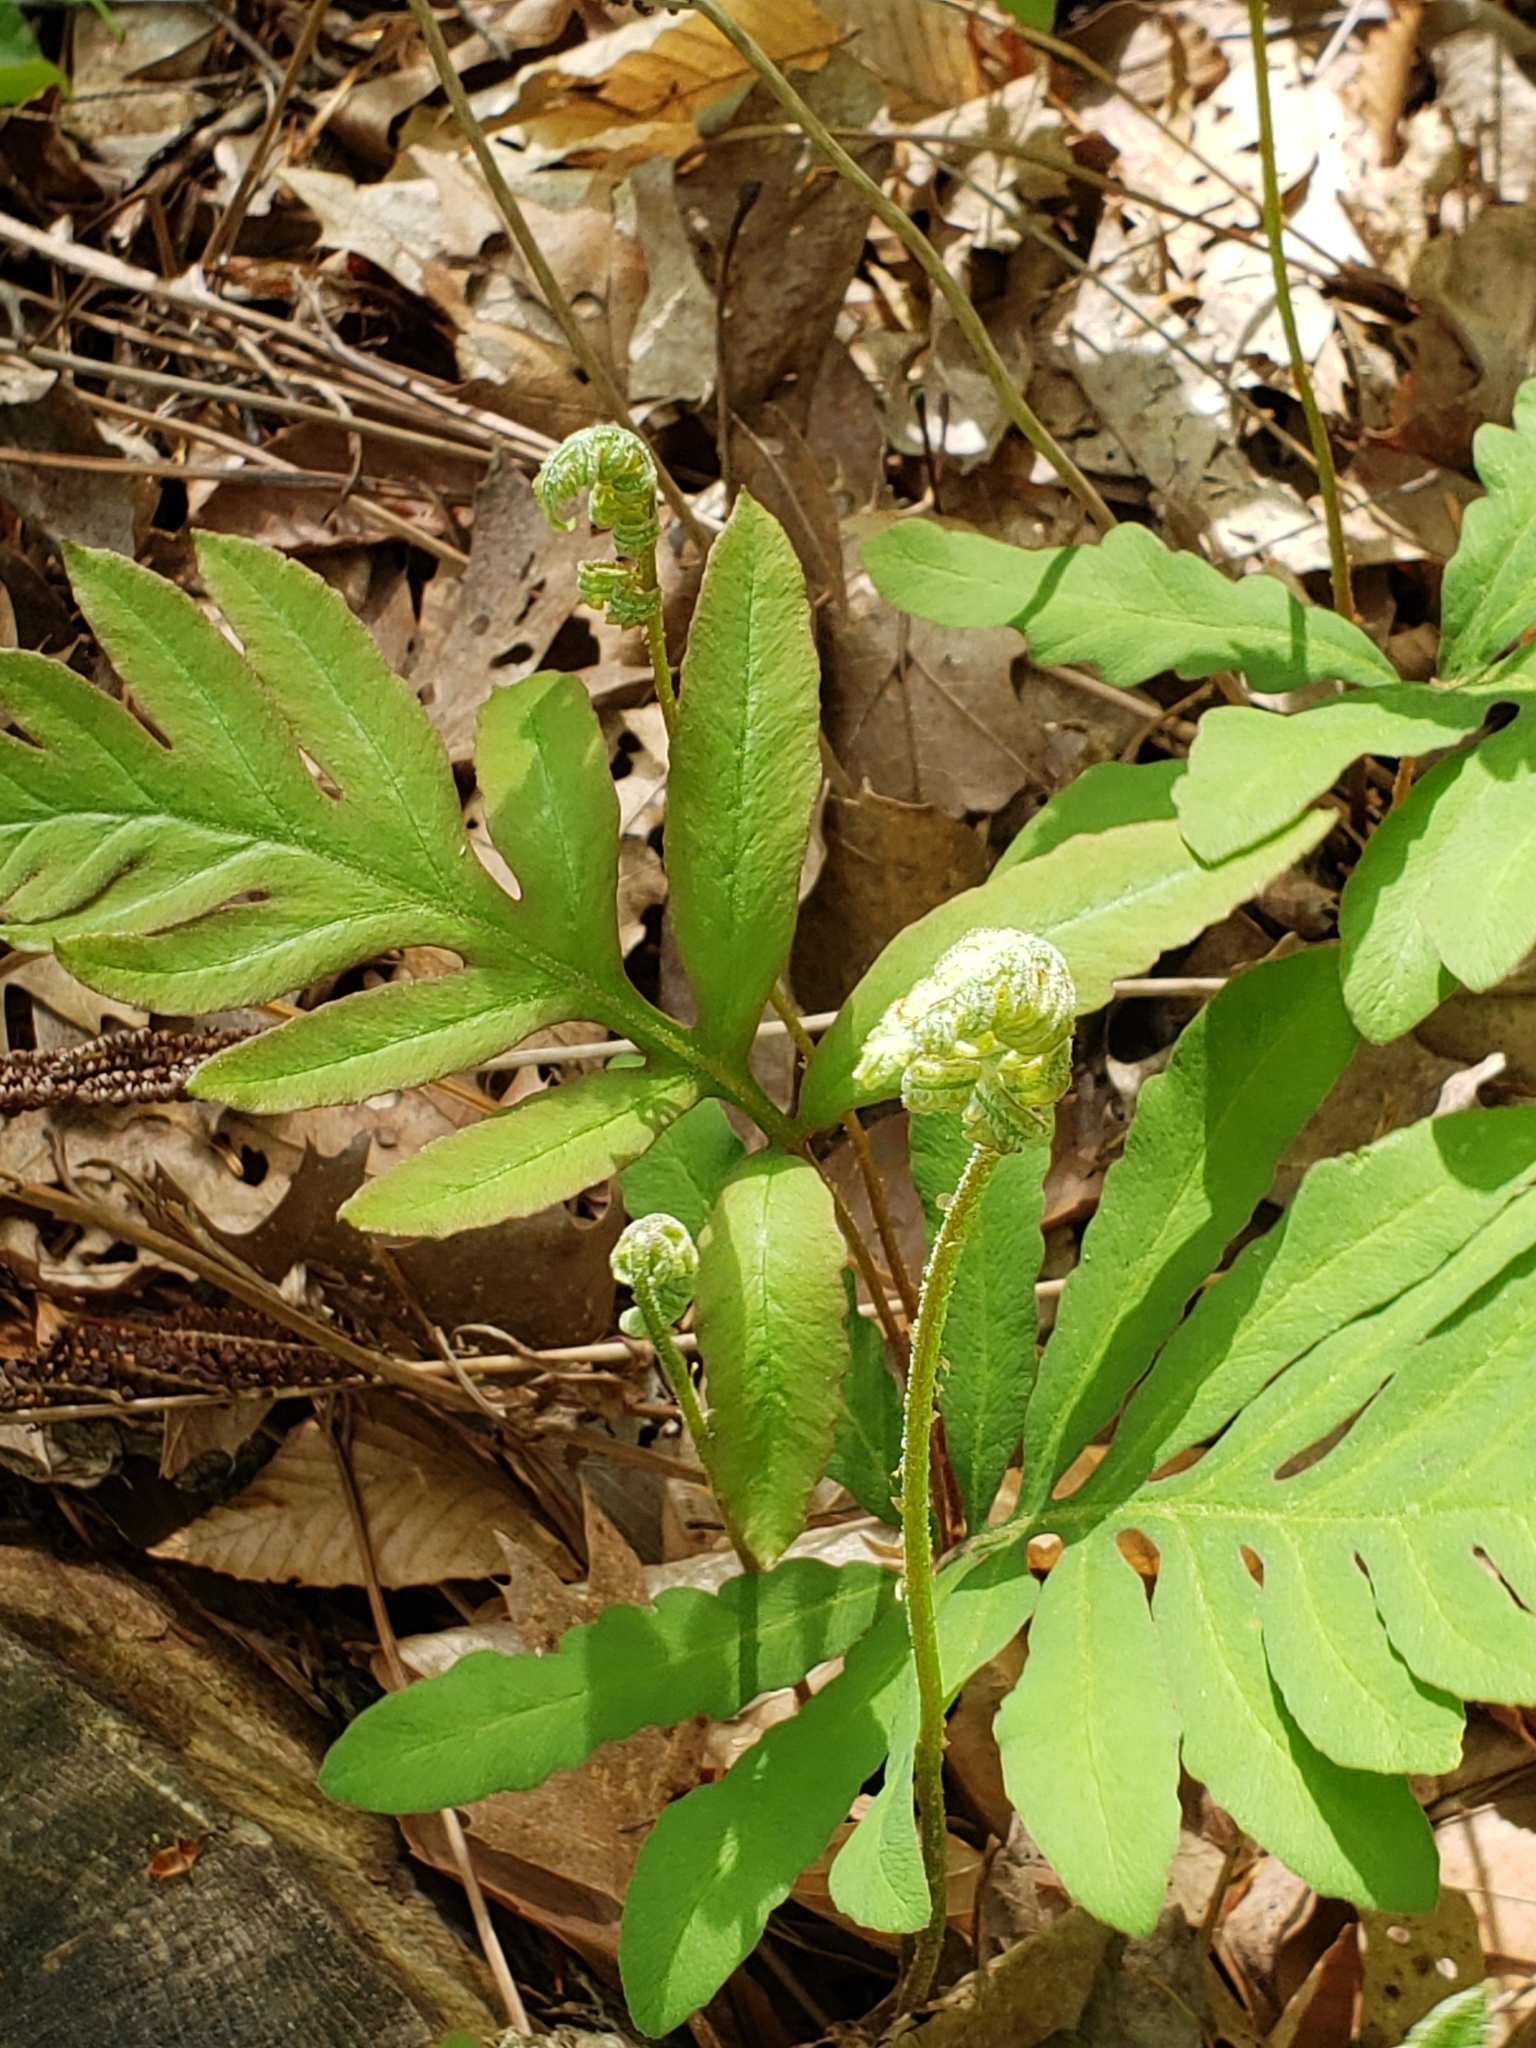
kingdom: Plantae
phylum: Tracheophyta
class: Polypodiopsida
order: Polypodiales
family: Onocleaceae
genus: Onoclea
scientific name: Onoclea sensibilis
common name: Sensitive fern
